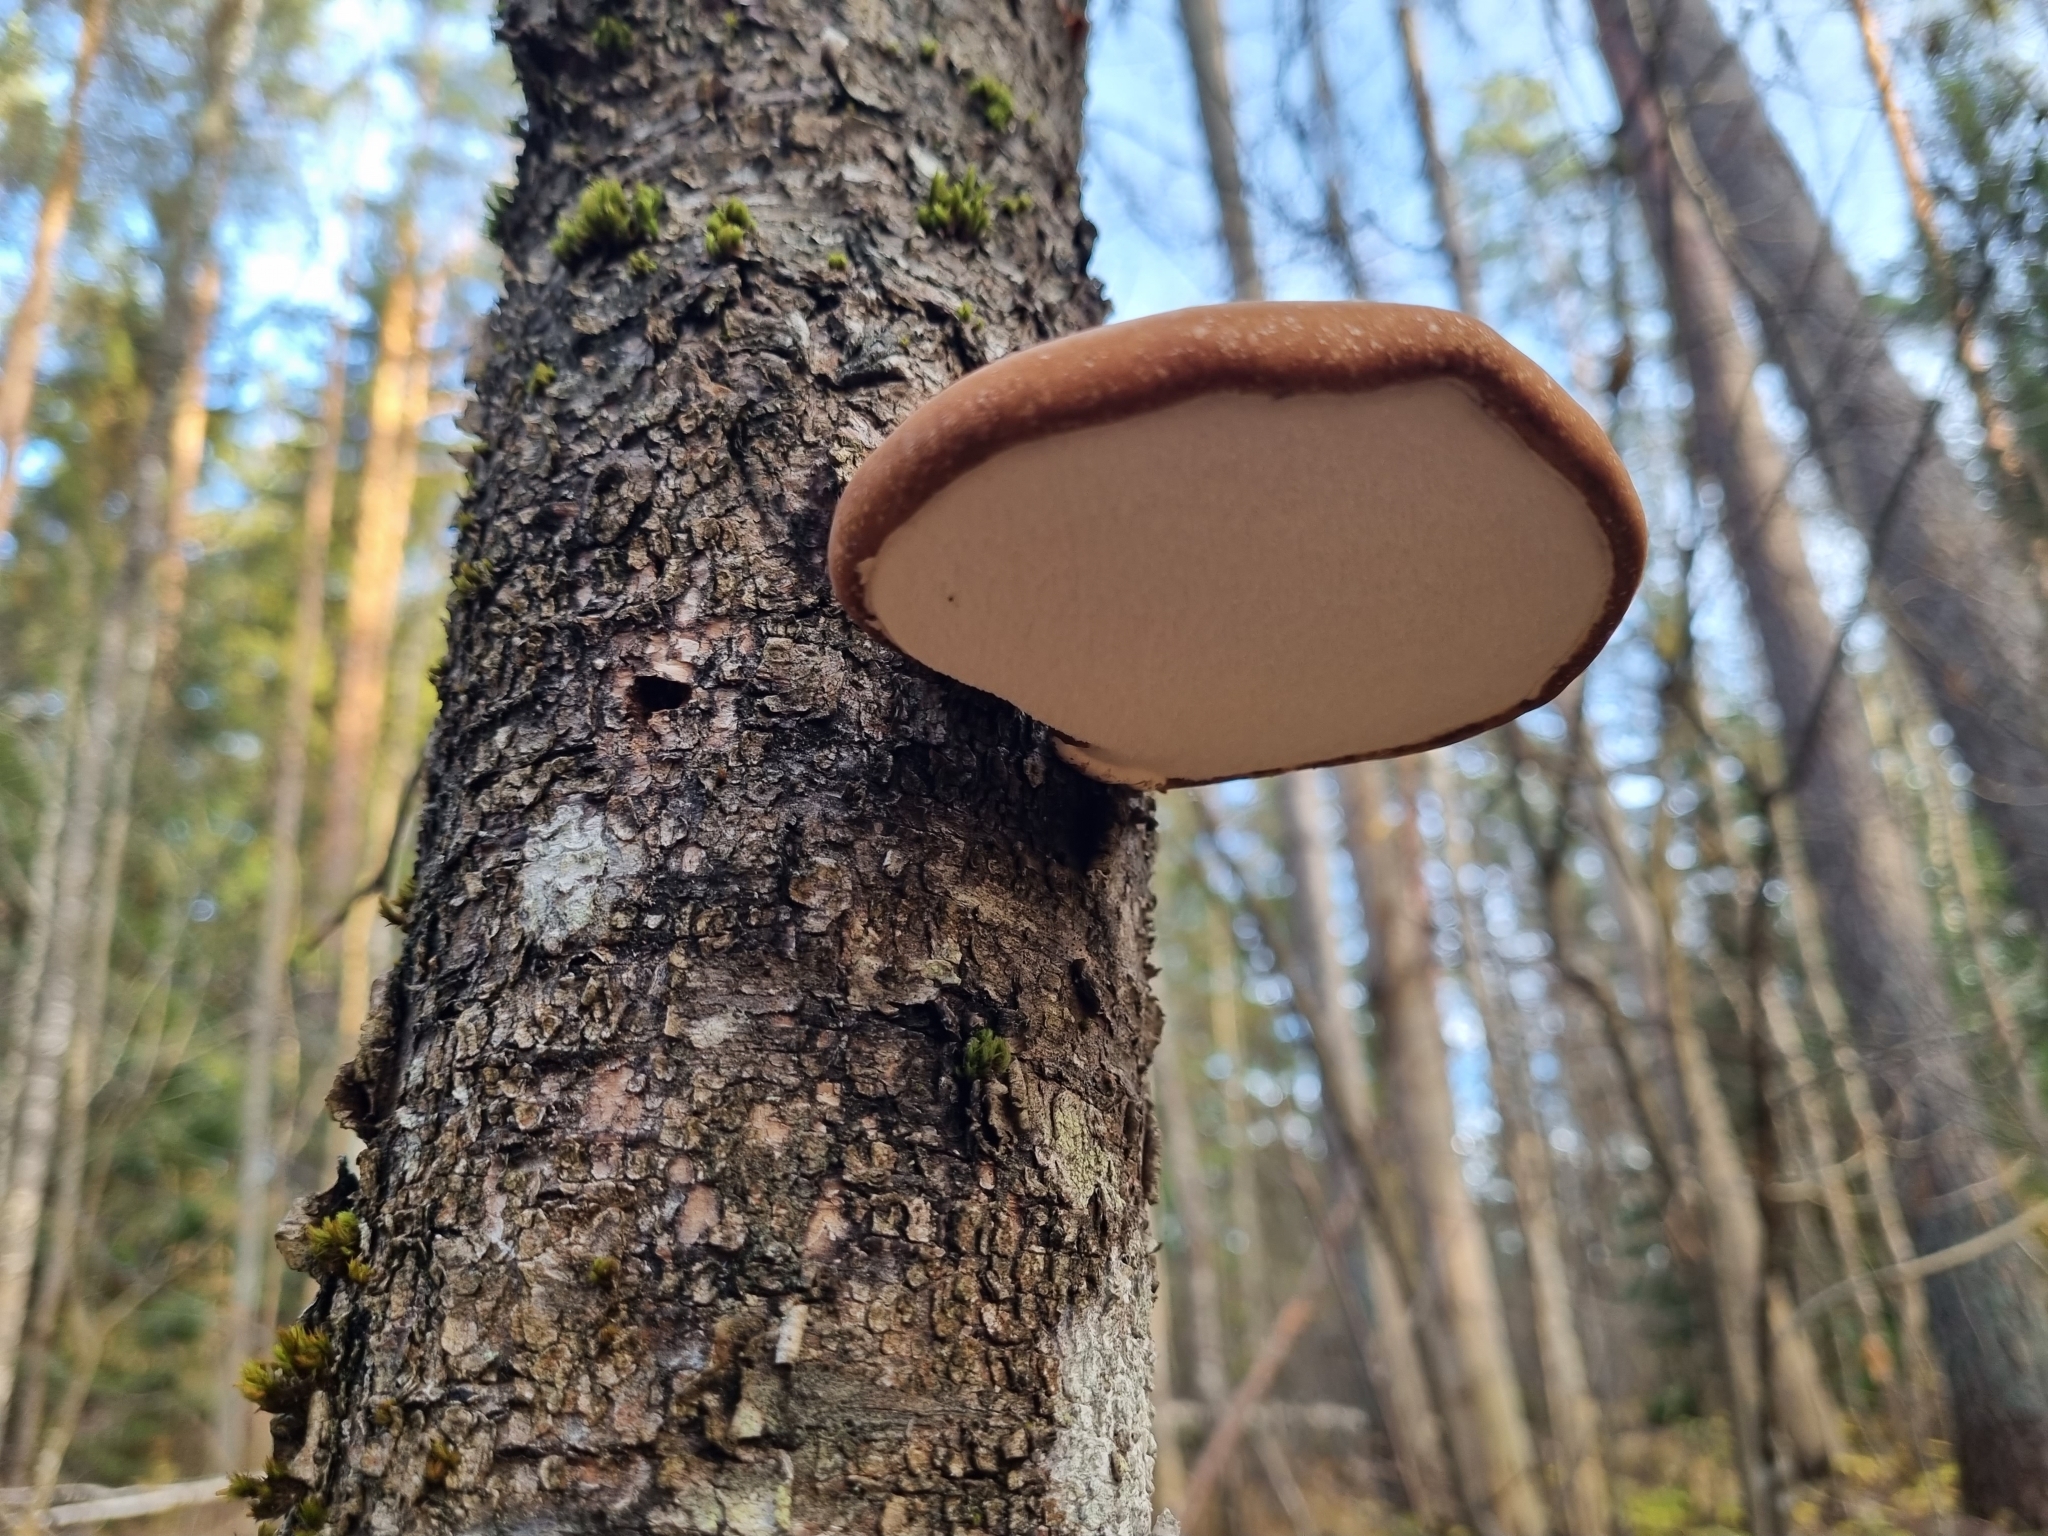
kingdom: Fungi
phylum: Basidiomycota
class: Agaricomycetes
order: Polyporales
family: Fomitopsidaceae
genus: Fomitopsis
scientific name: Fomitopsis betulina
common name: Birch polypore
